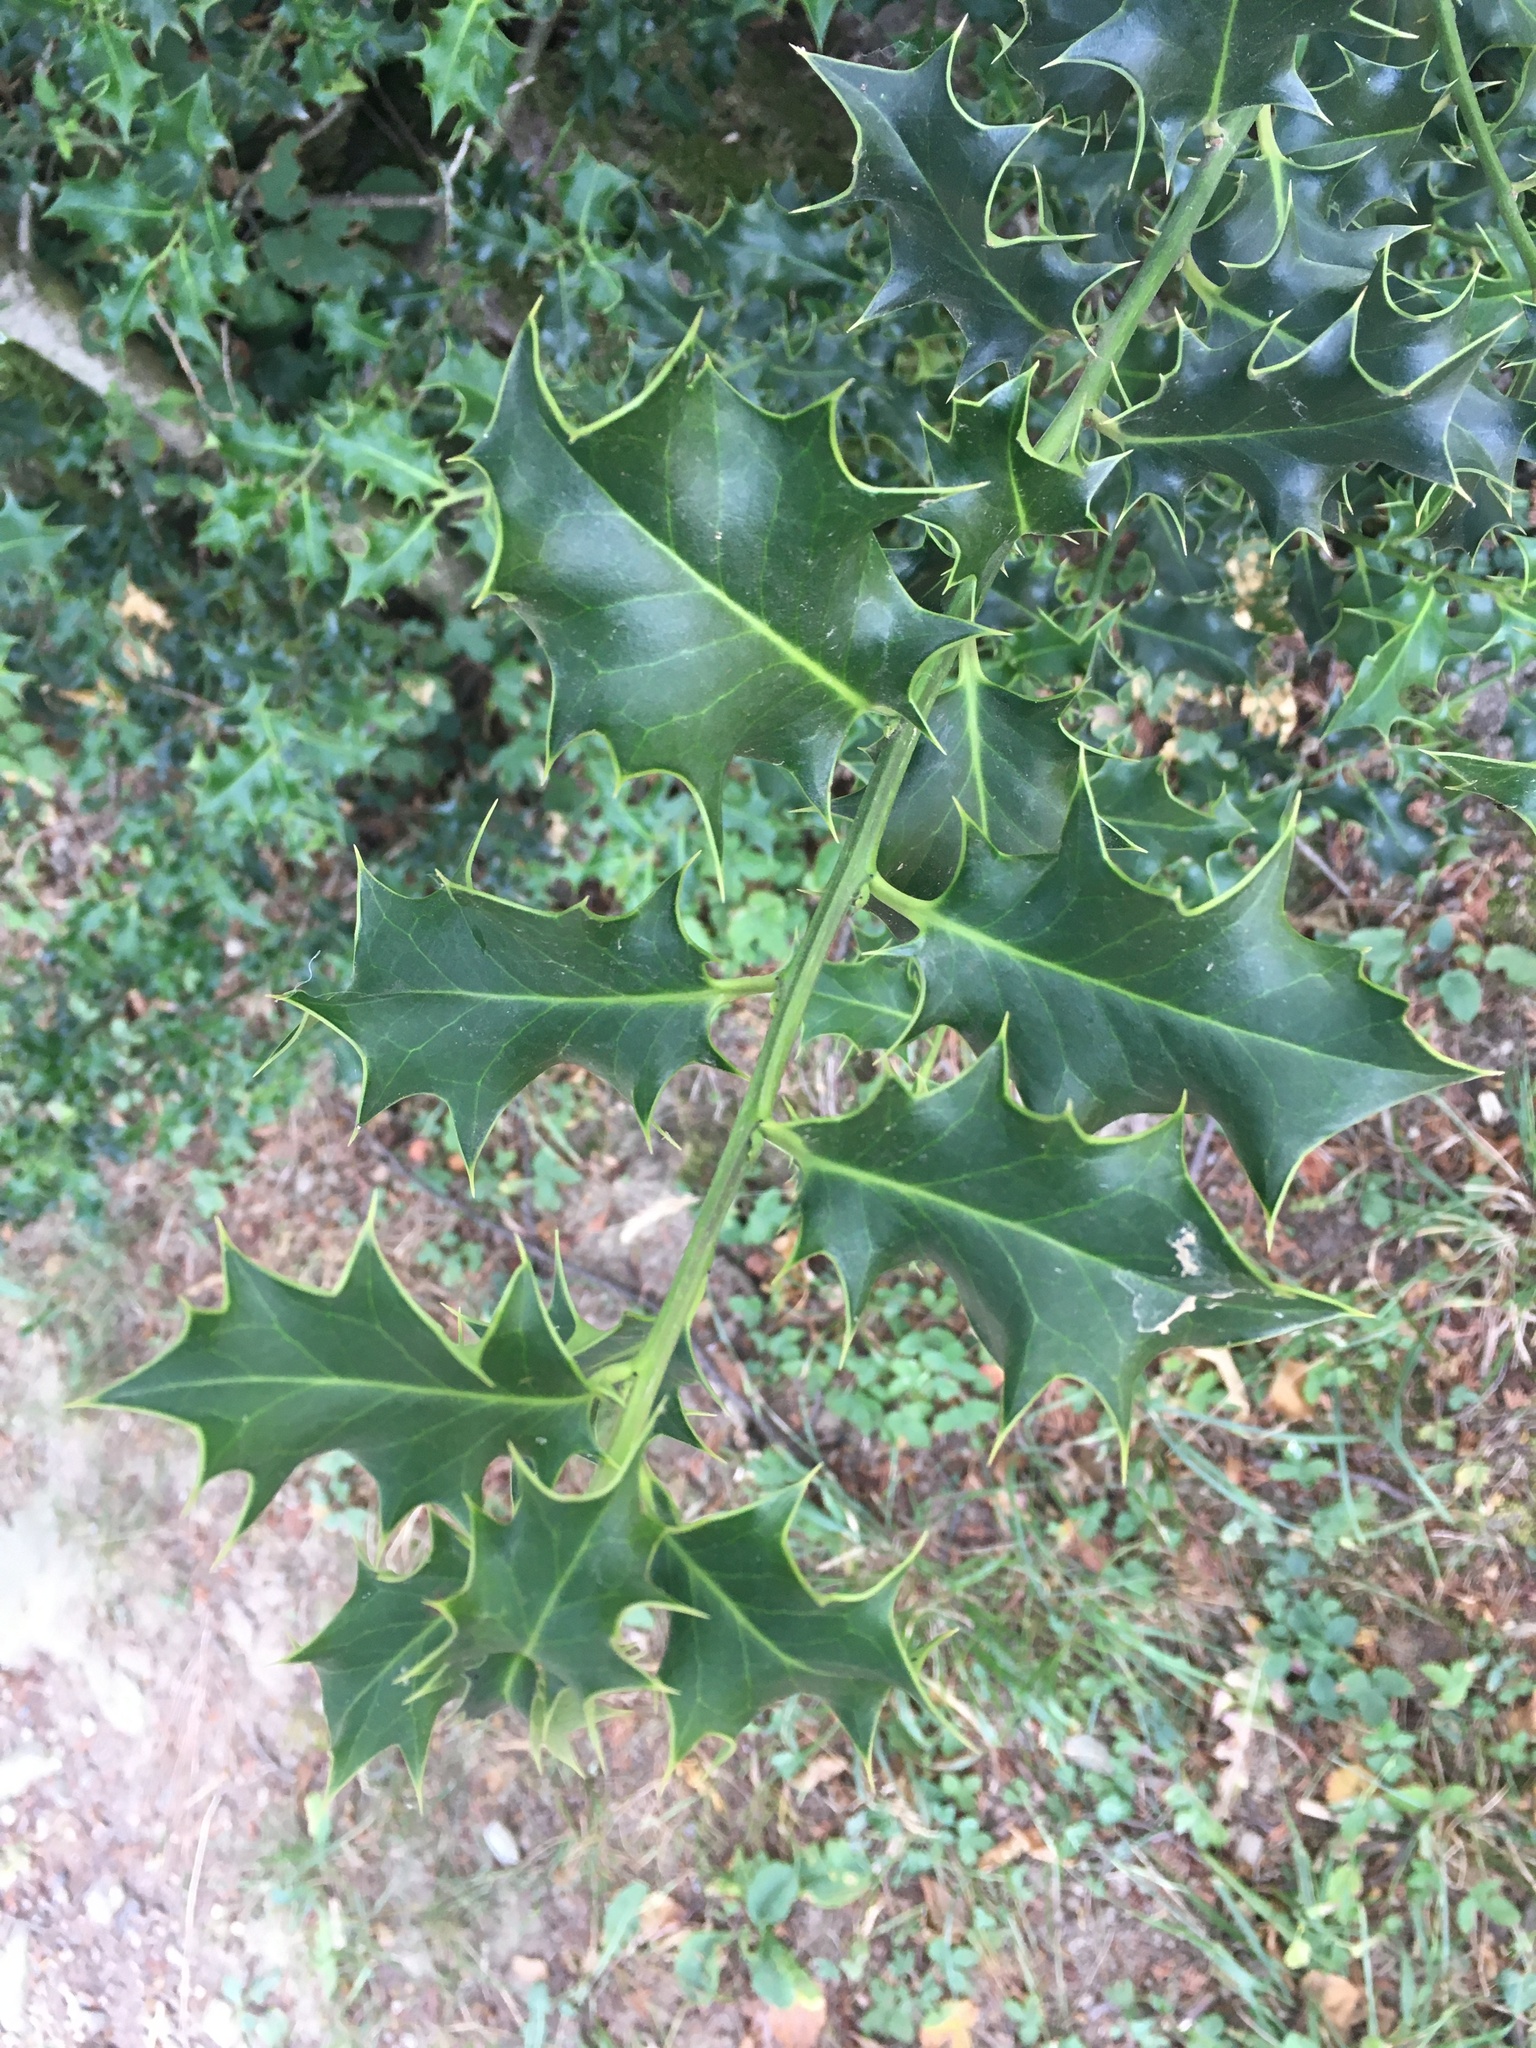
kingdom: Plantae
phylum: Tracheophyta
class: Magnoliopsida
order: Aquifoliales
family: Aquifoliaceae
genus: Ilex
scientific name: Ilex aquifolium
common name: English holly
